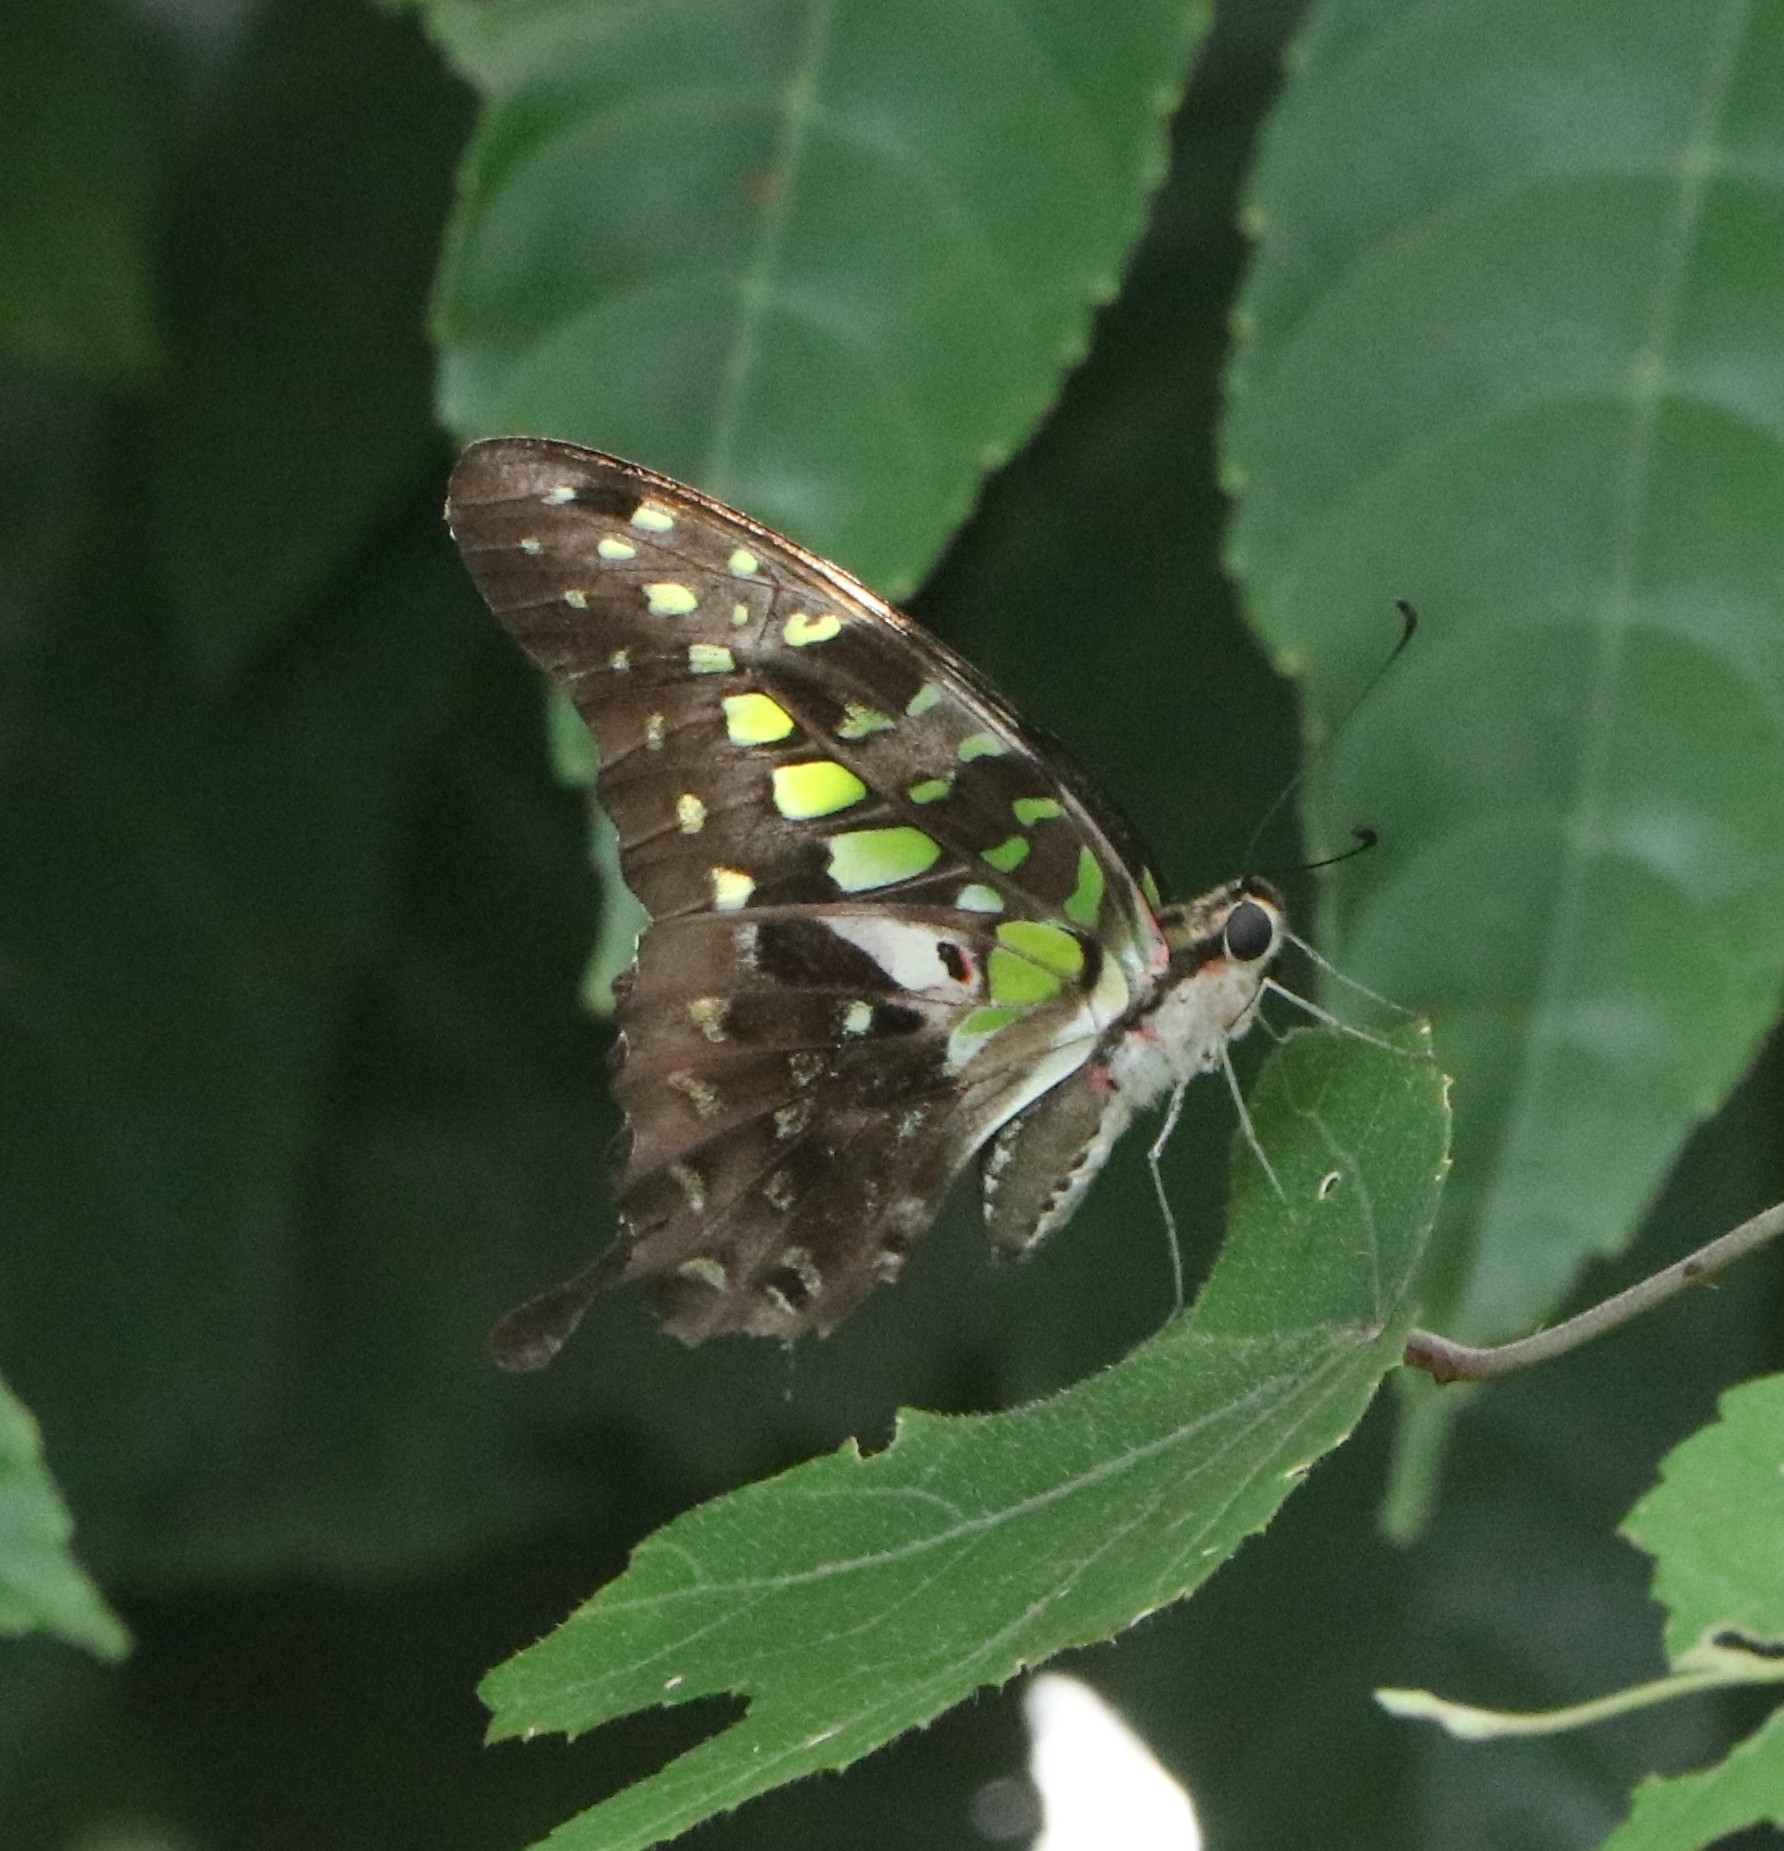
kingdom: Animalia
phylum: Arthropoda
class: Insecta
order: Lepidoptera
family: Papilionidae
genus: Graphium
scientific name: Graphium agamemnon
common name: Tailed jay
